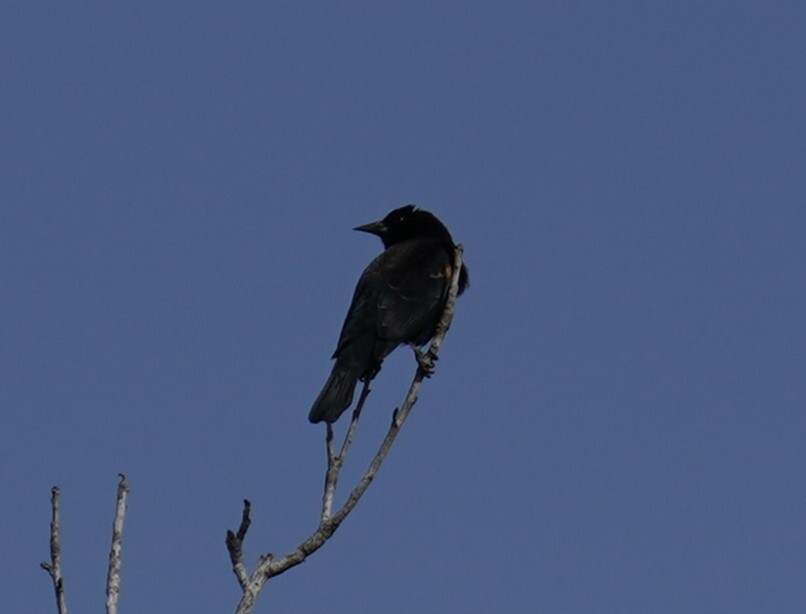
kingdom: Animalia
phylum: Chordata
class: Aves
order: Passeriformes
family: Icteridae
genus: Agelaius
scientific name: Agelaius phoeniceus
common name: Red-winged blackbird
